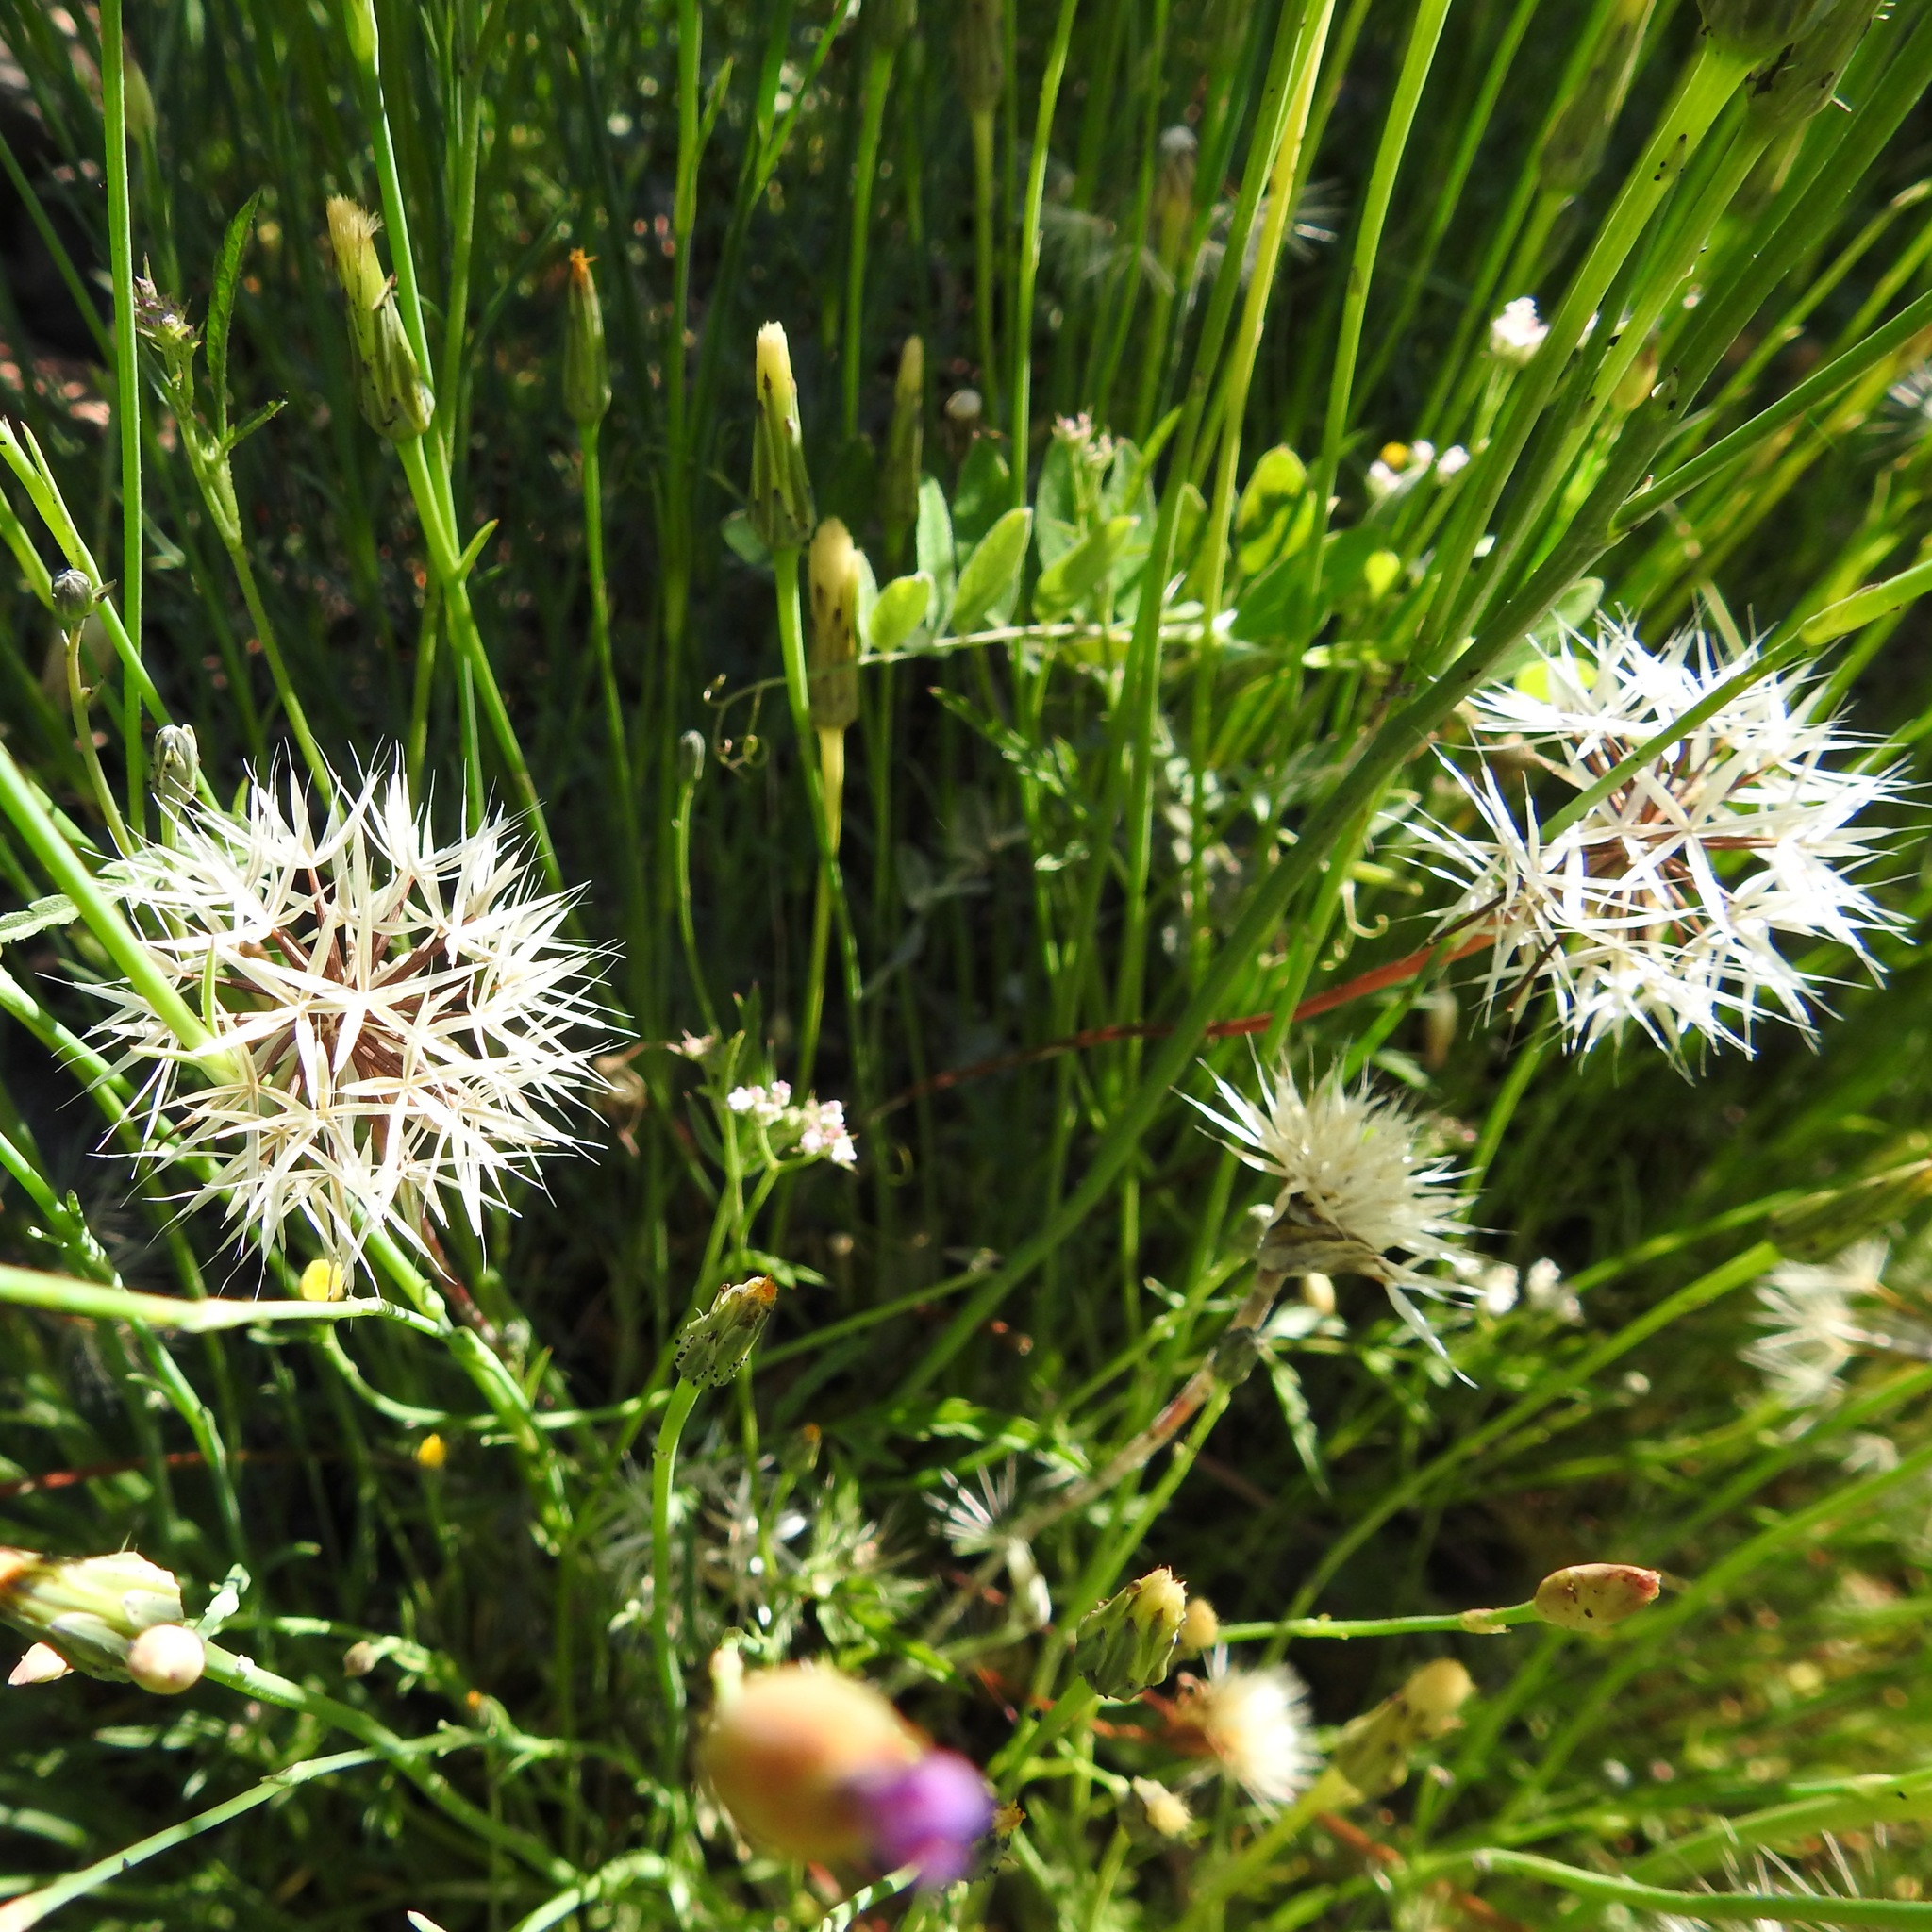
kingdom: Plantae
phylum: Tracheophyta
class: Magnoliopsida
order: Asterales
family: Asteraceae
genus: Microseris
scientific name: Microseris lindleyi
